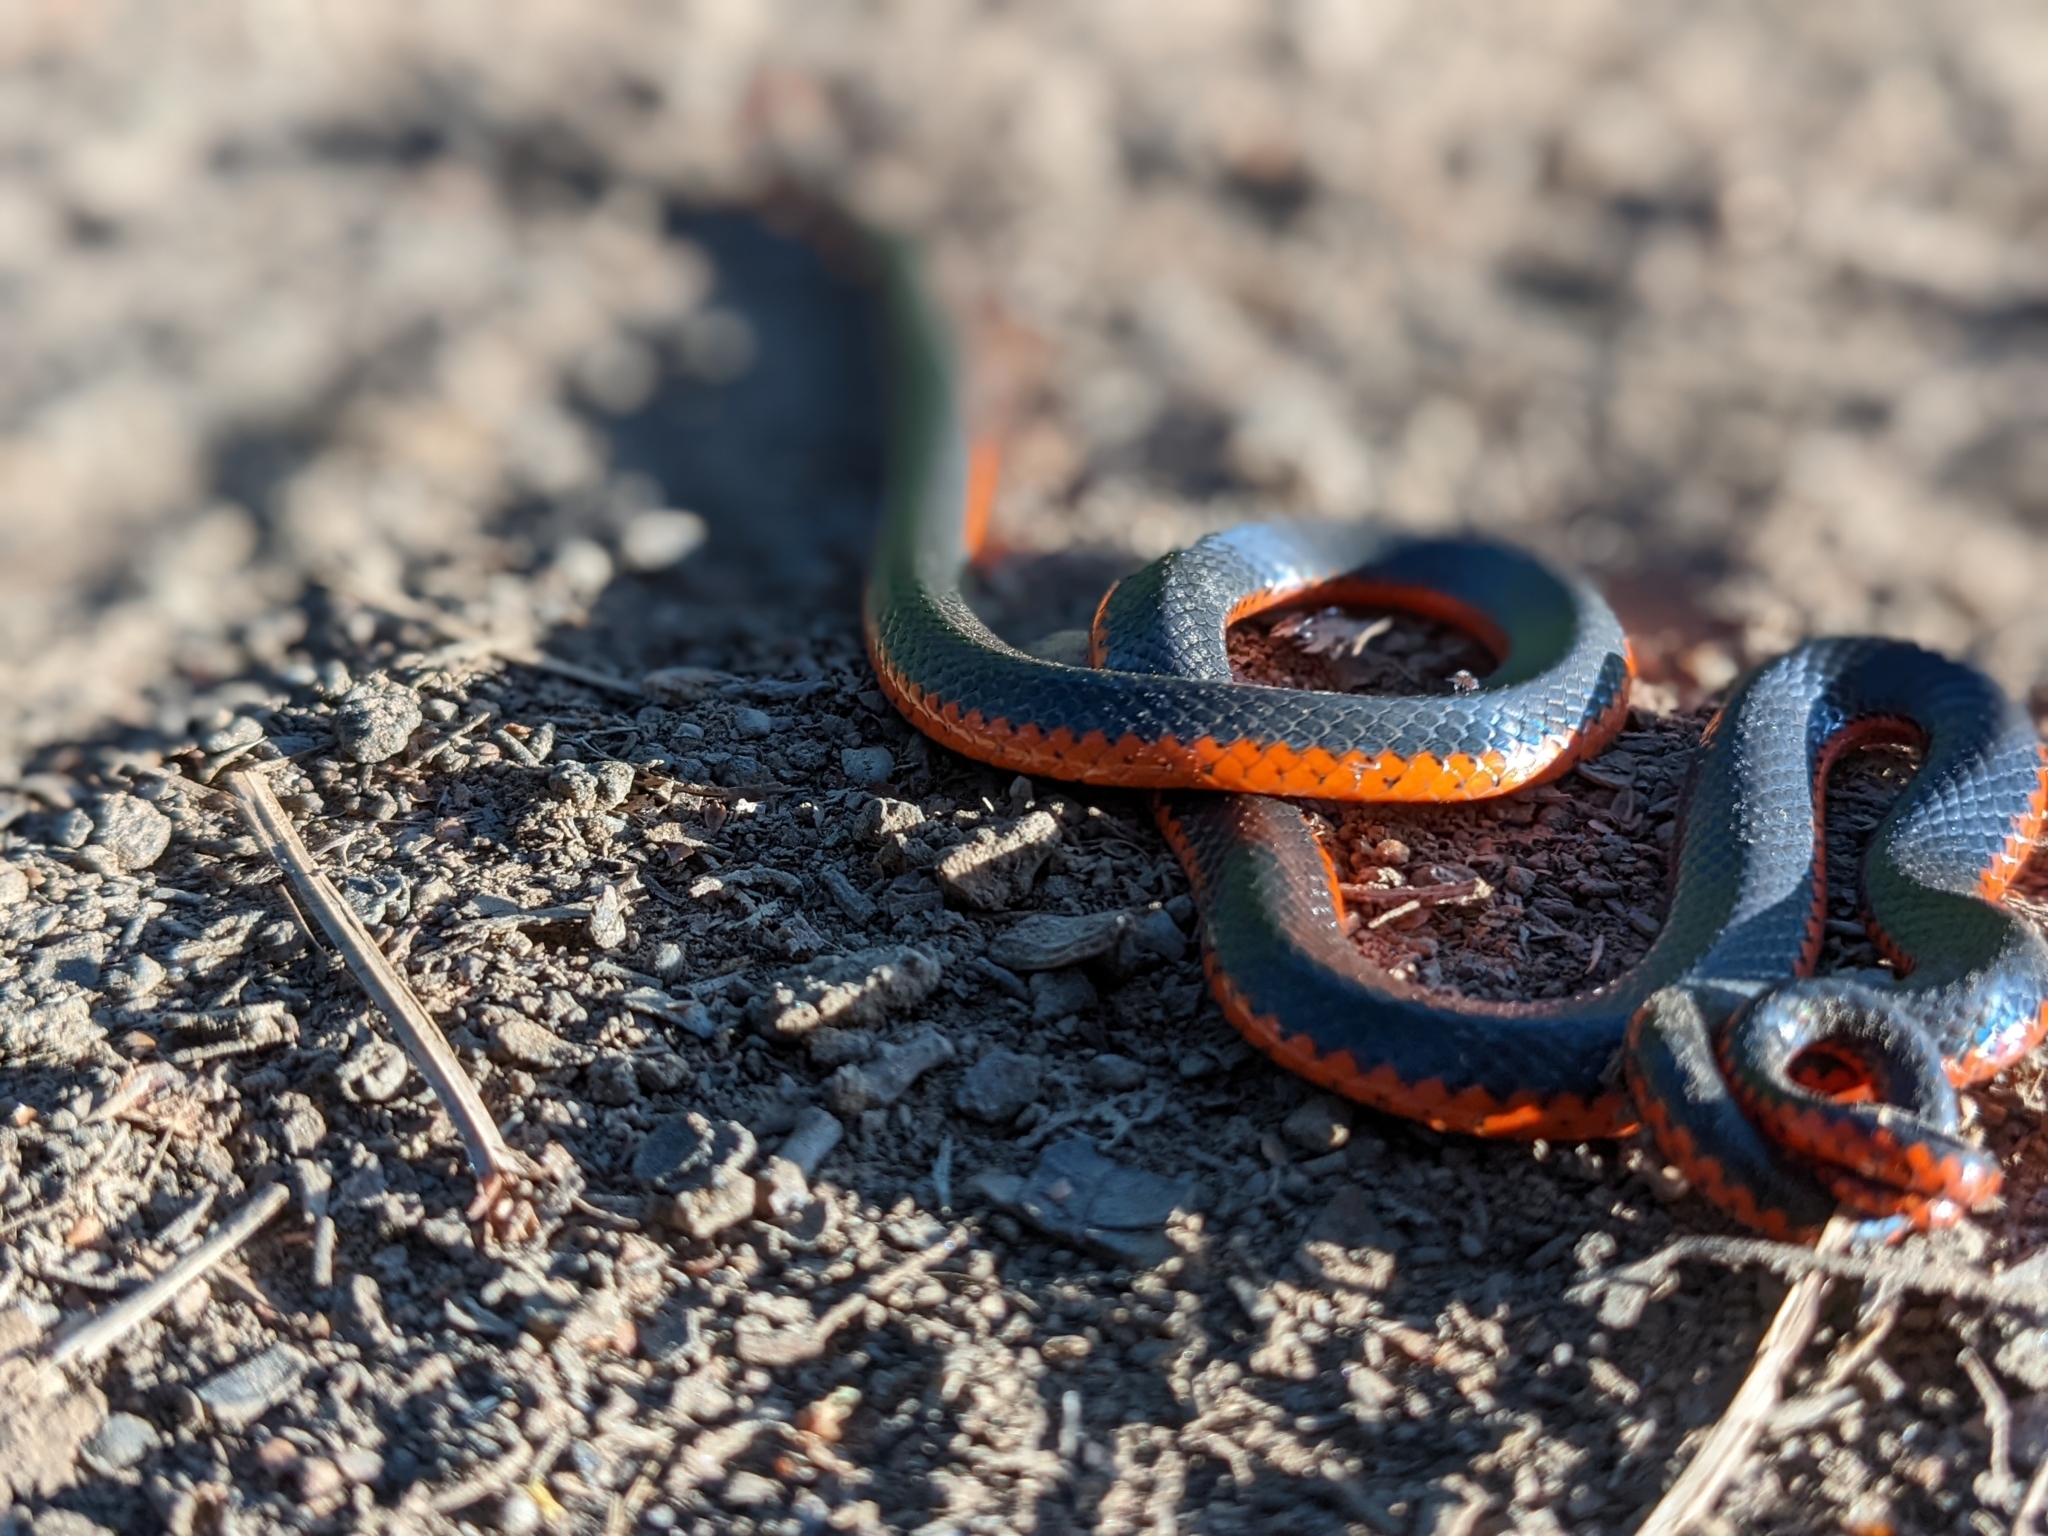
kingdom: Animalia
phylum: Chordata
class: Squamata
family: Colubridae
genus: Diadophis
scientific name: Diadophis punctatus
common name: Ringneck snake
